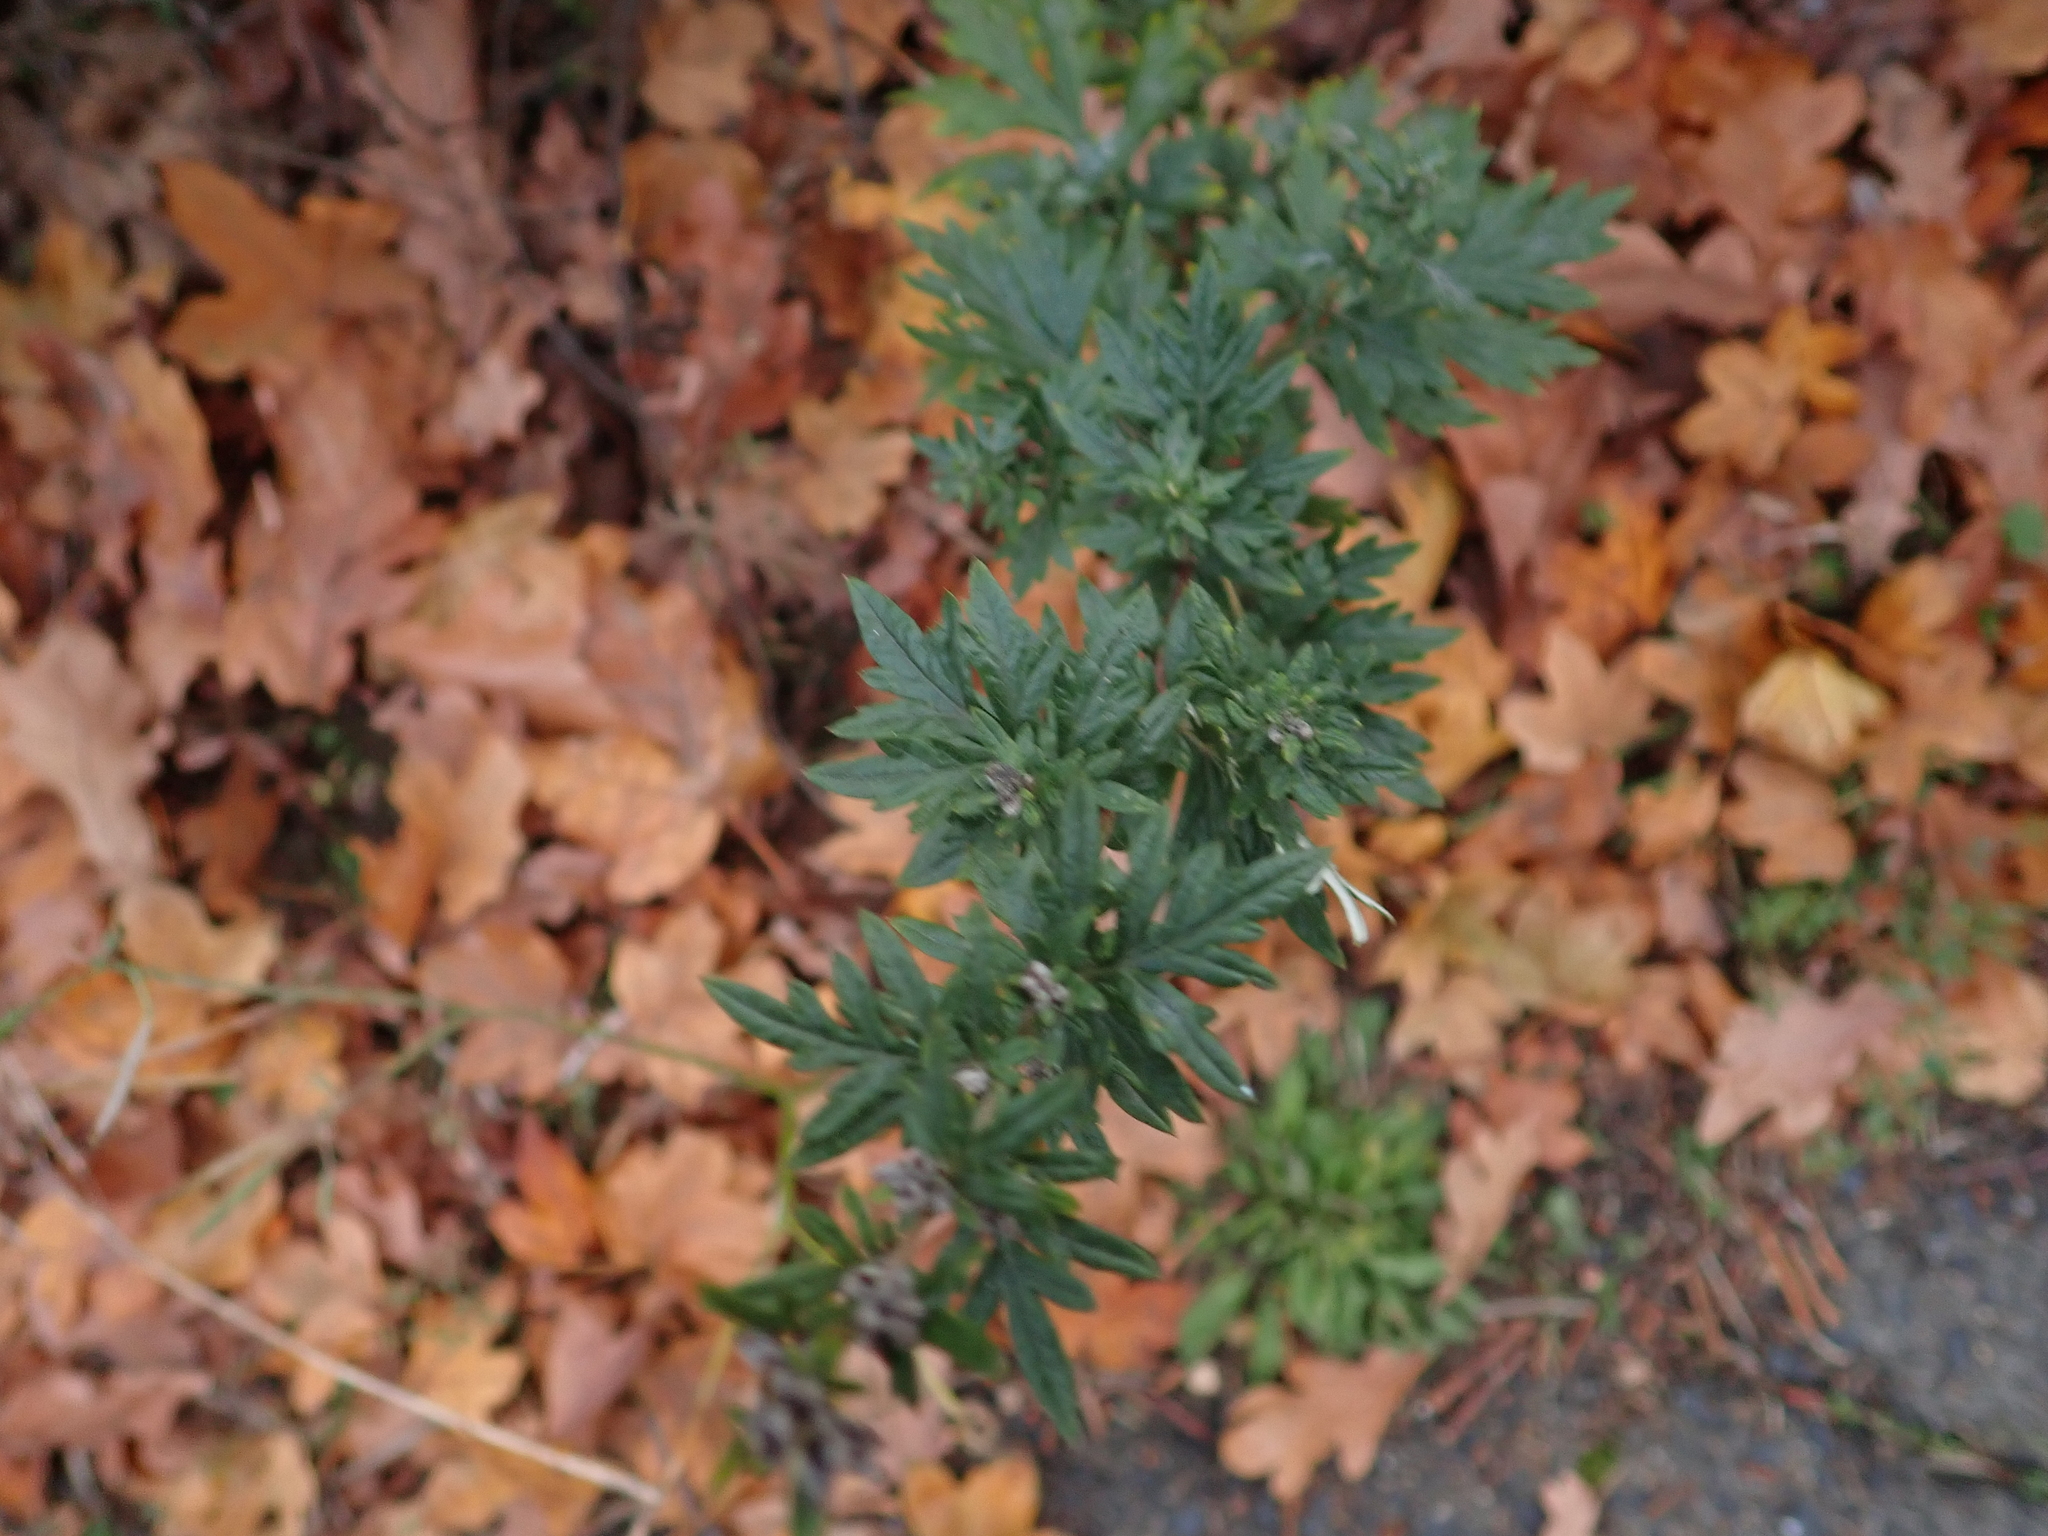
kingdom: Plantae
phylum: Tracheophyta
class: Magnoliopsida
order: Asterales
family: Asteraceae
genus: Artemisia
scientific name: Artemisia vulgaris
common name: Mugwort
